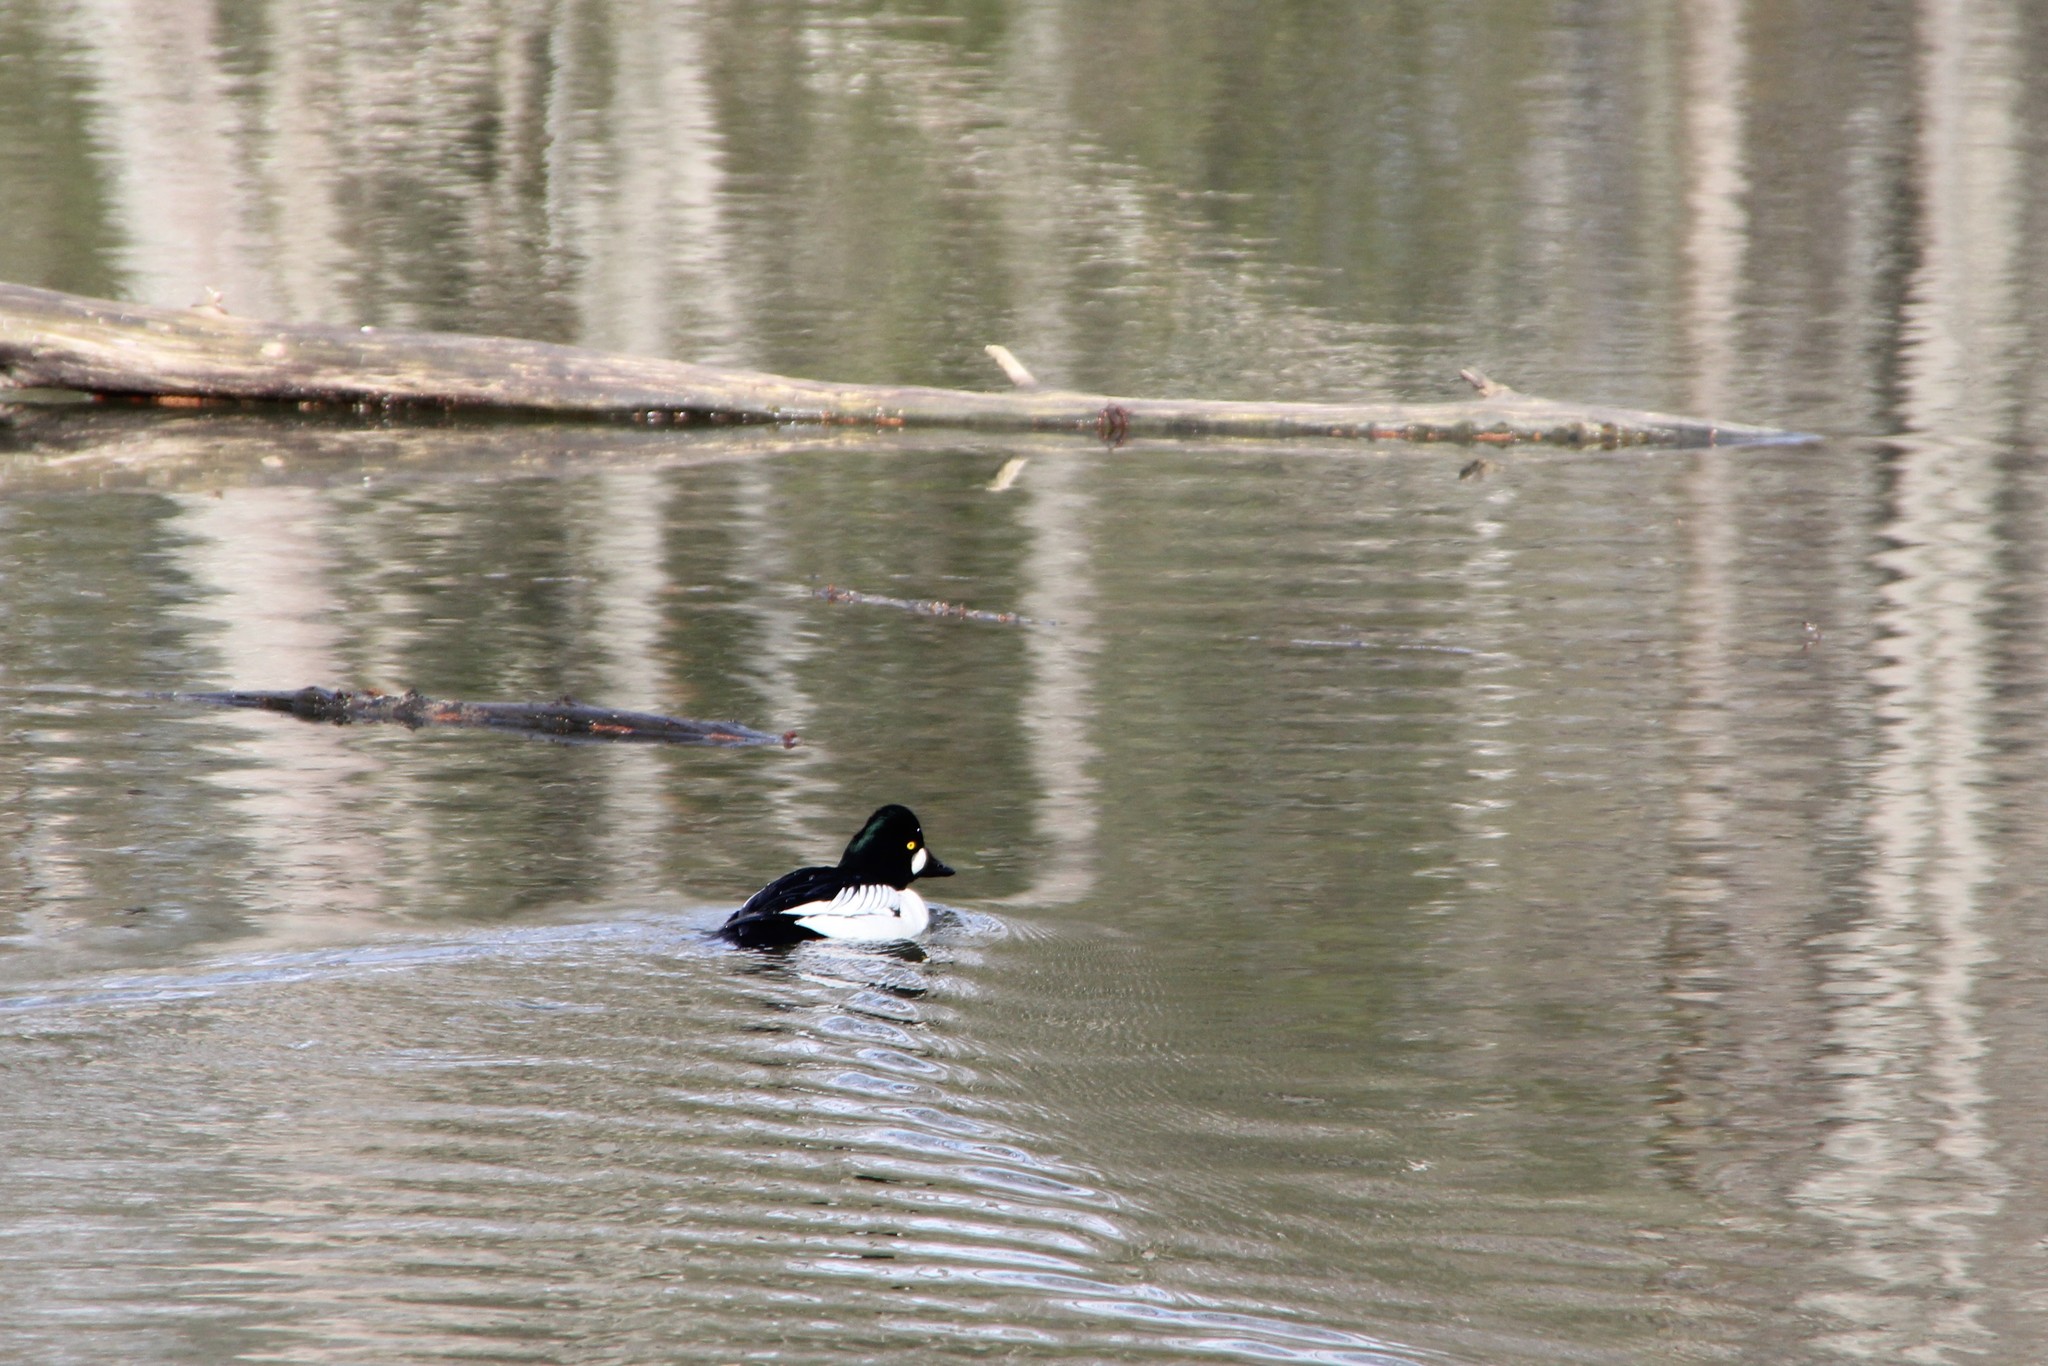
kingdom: Animalia
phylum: Chordata
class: Aves
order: Anseriformes
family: Anatidae
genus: Bucephala
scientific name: Bucephala clangula
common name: Common goldeneye
